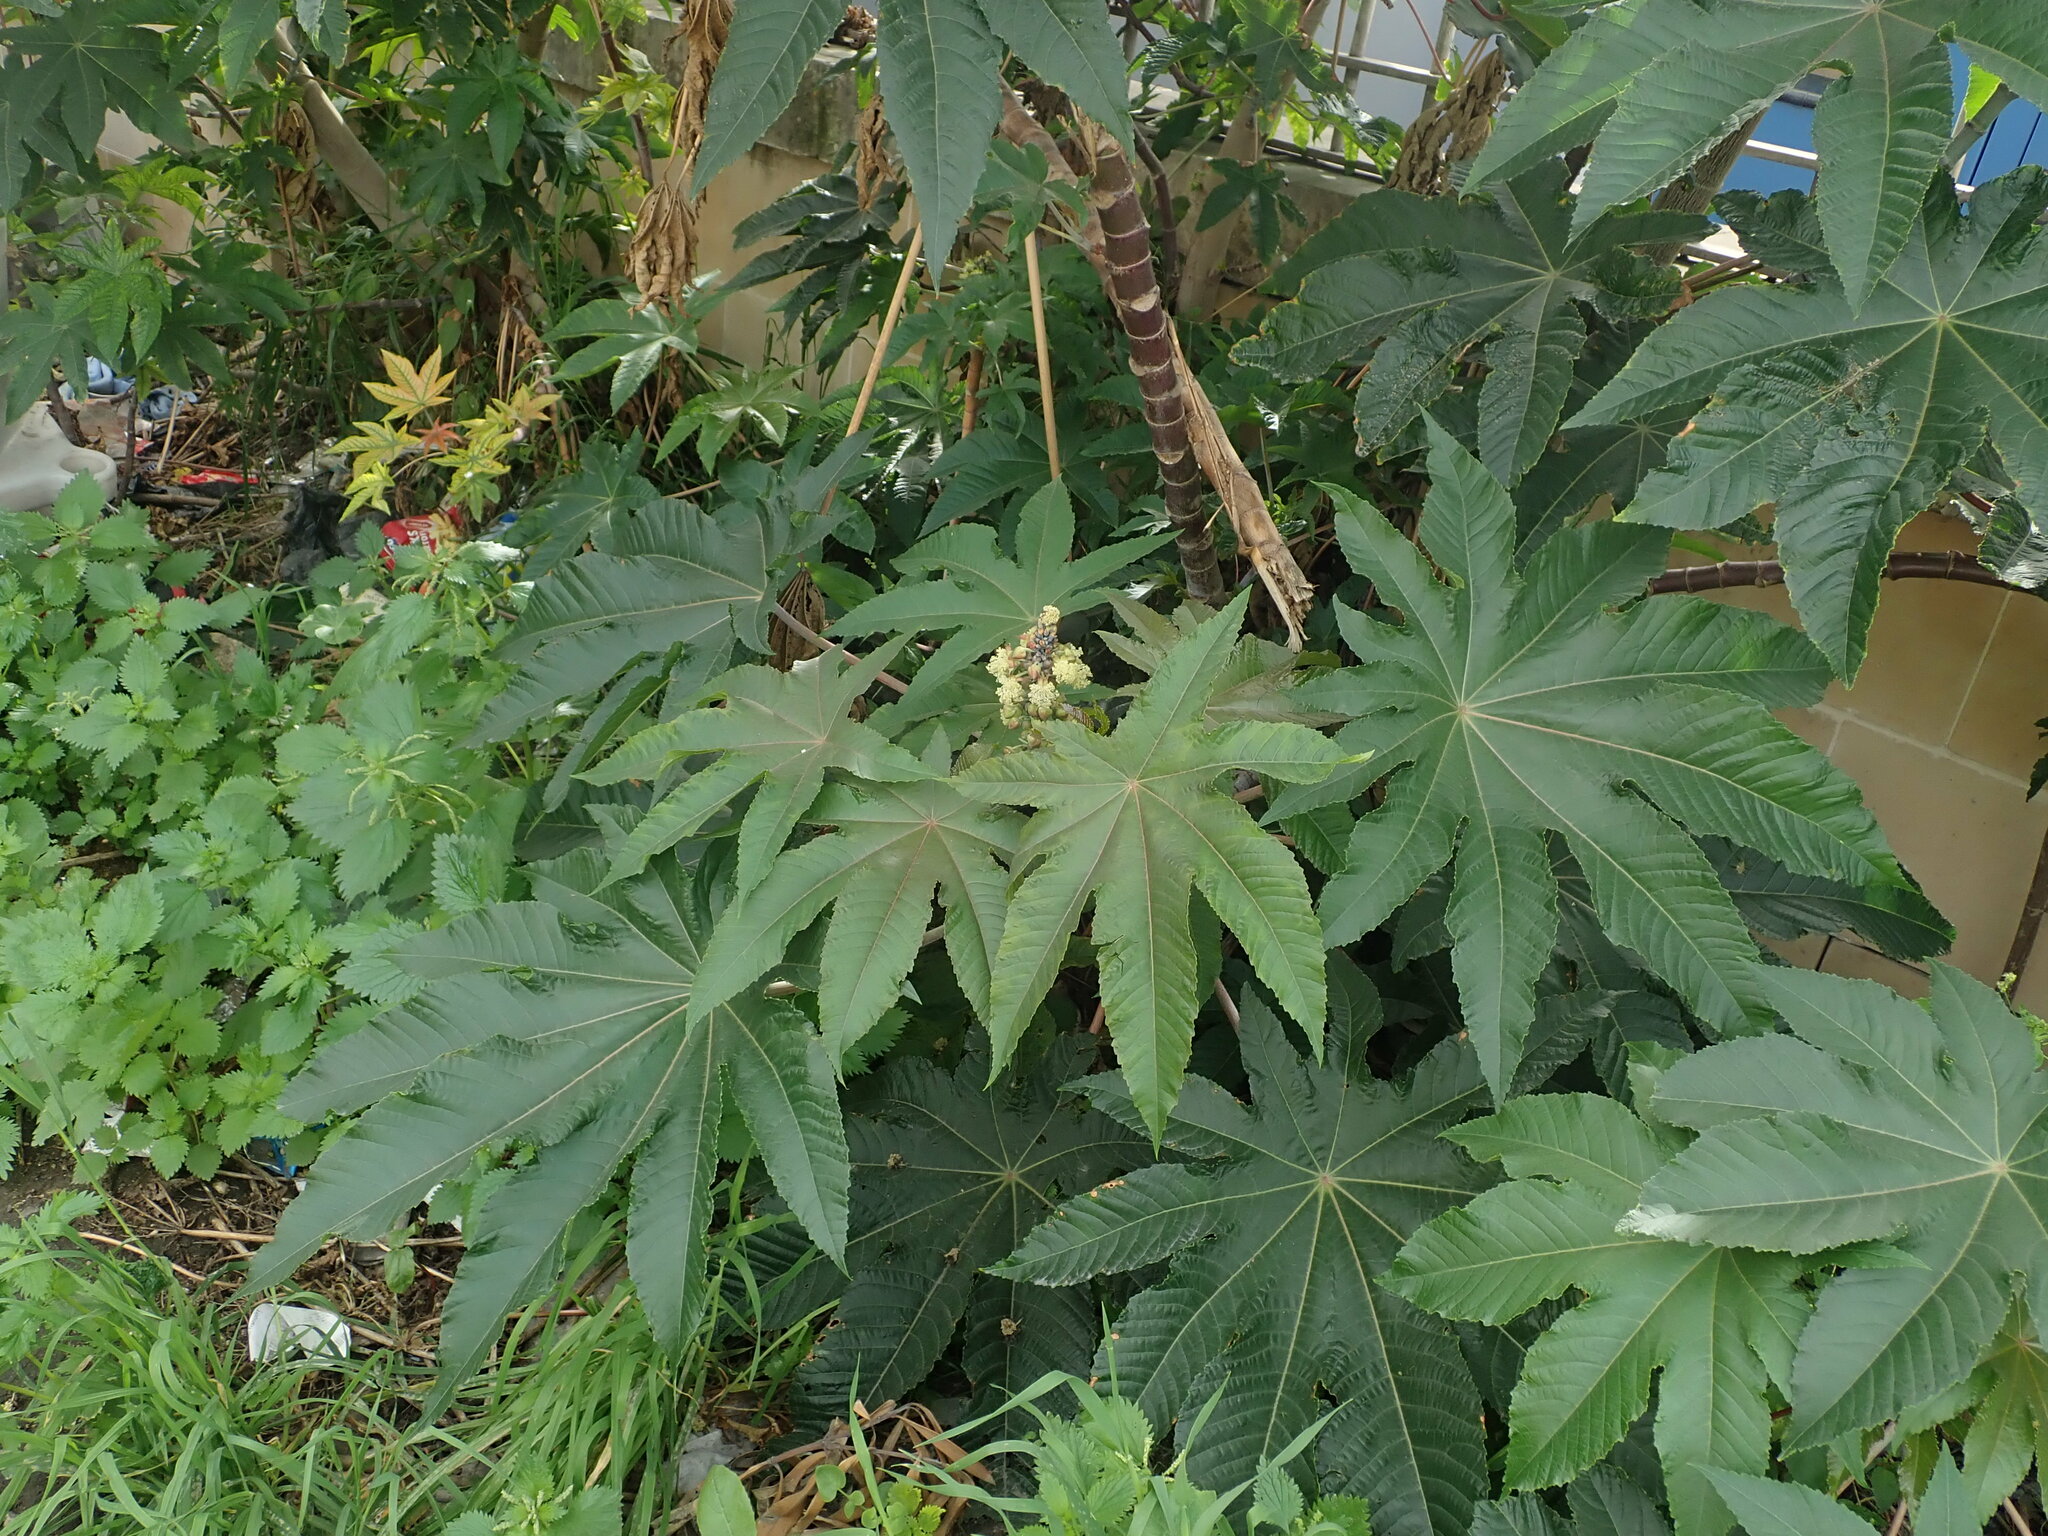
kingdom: Plantae
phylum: Tracheophyta
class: Magnoliopsida
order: Malpighiales
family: Euphorbiaceae
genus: Ricinus
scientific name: Ricinus communis
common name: Castor-oil-plant
